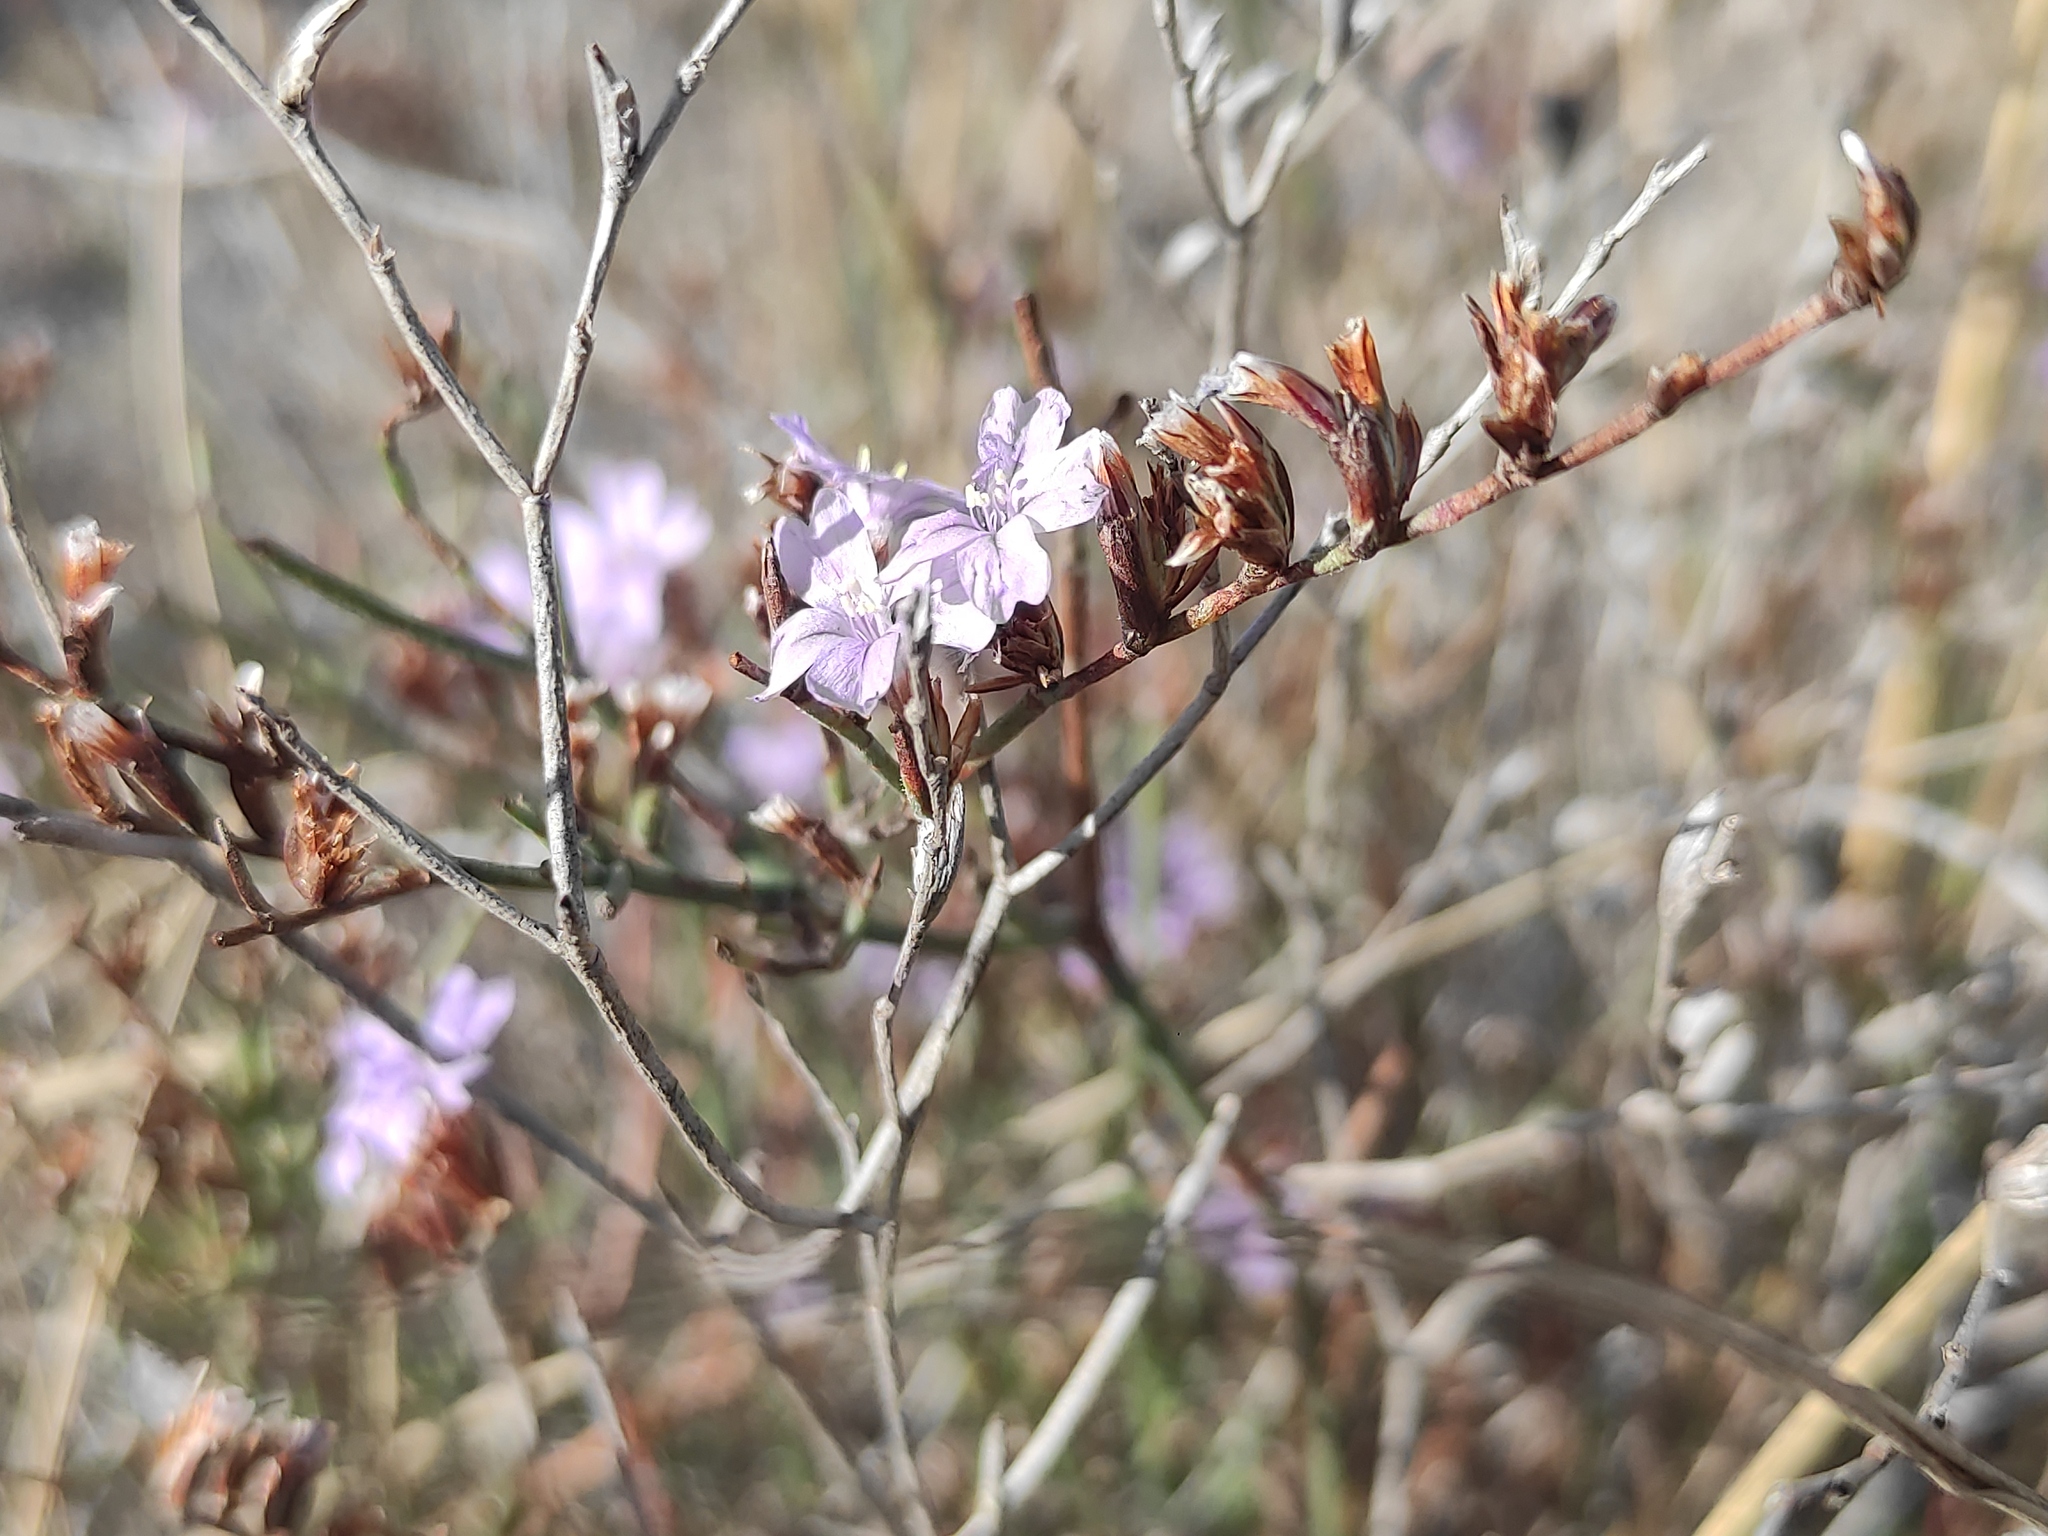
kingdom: Plantae
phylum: Tracheophyta
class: Magnoliopsida
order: Caryophyllales
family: Plumbaginaceae
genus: Limonium
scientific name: Limonium virgatum
